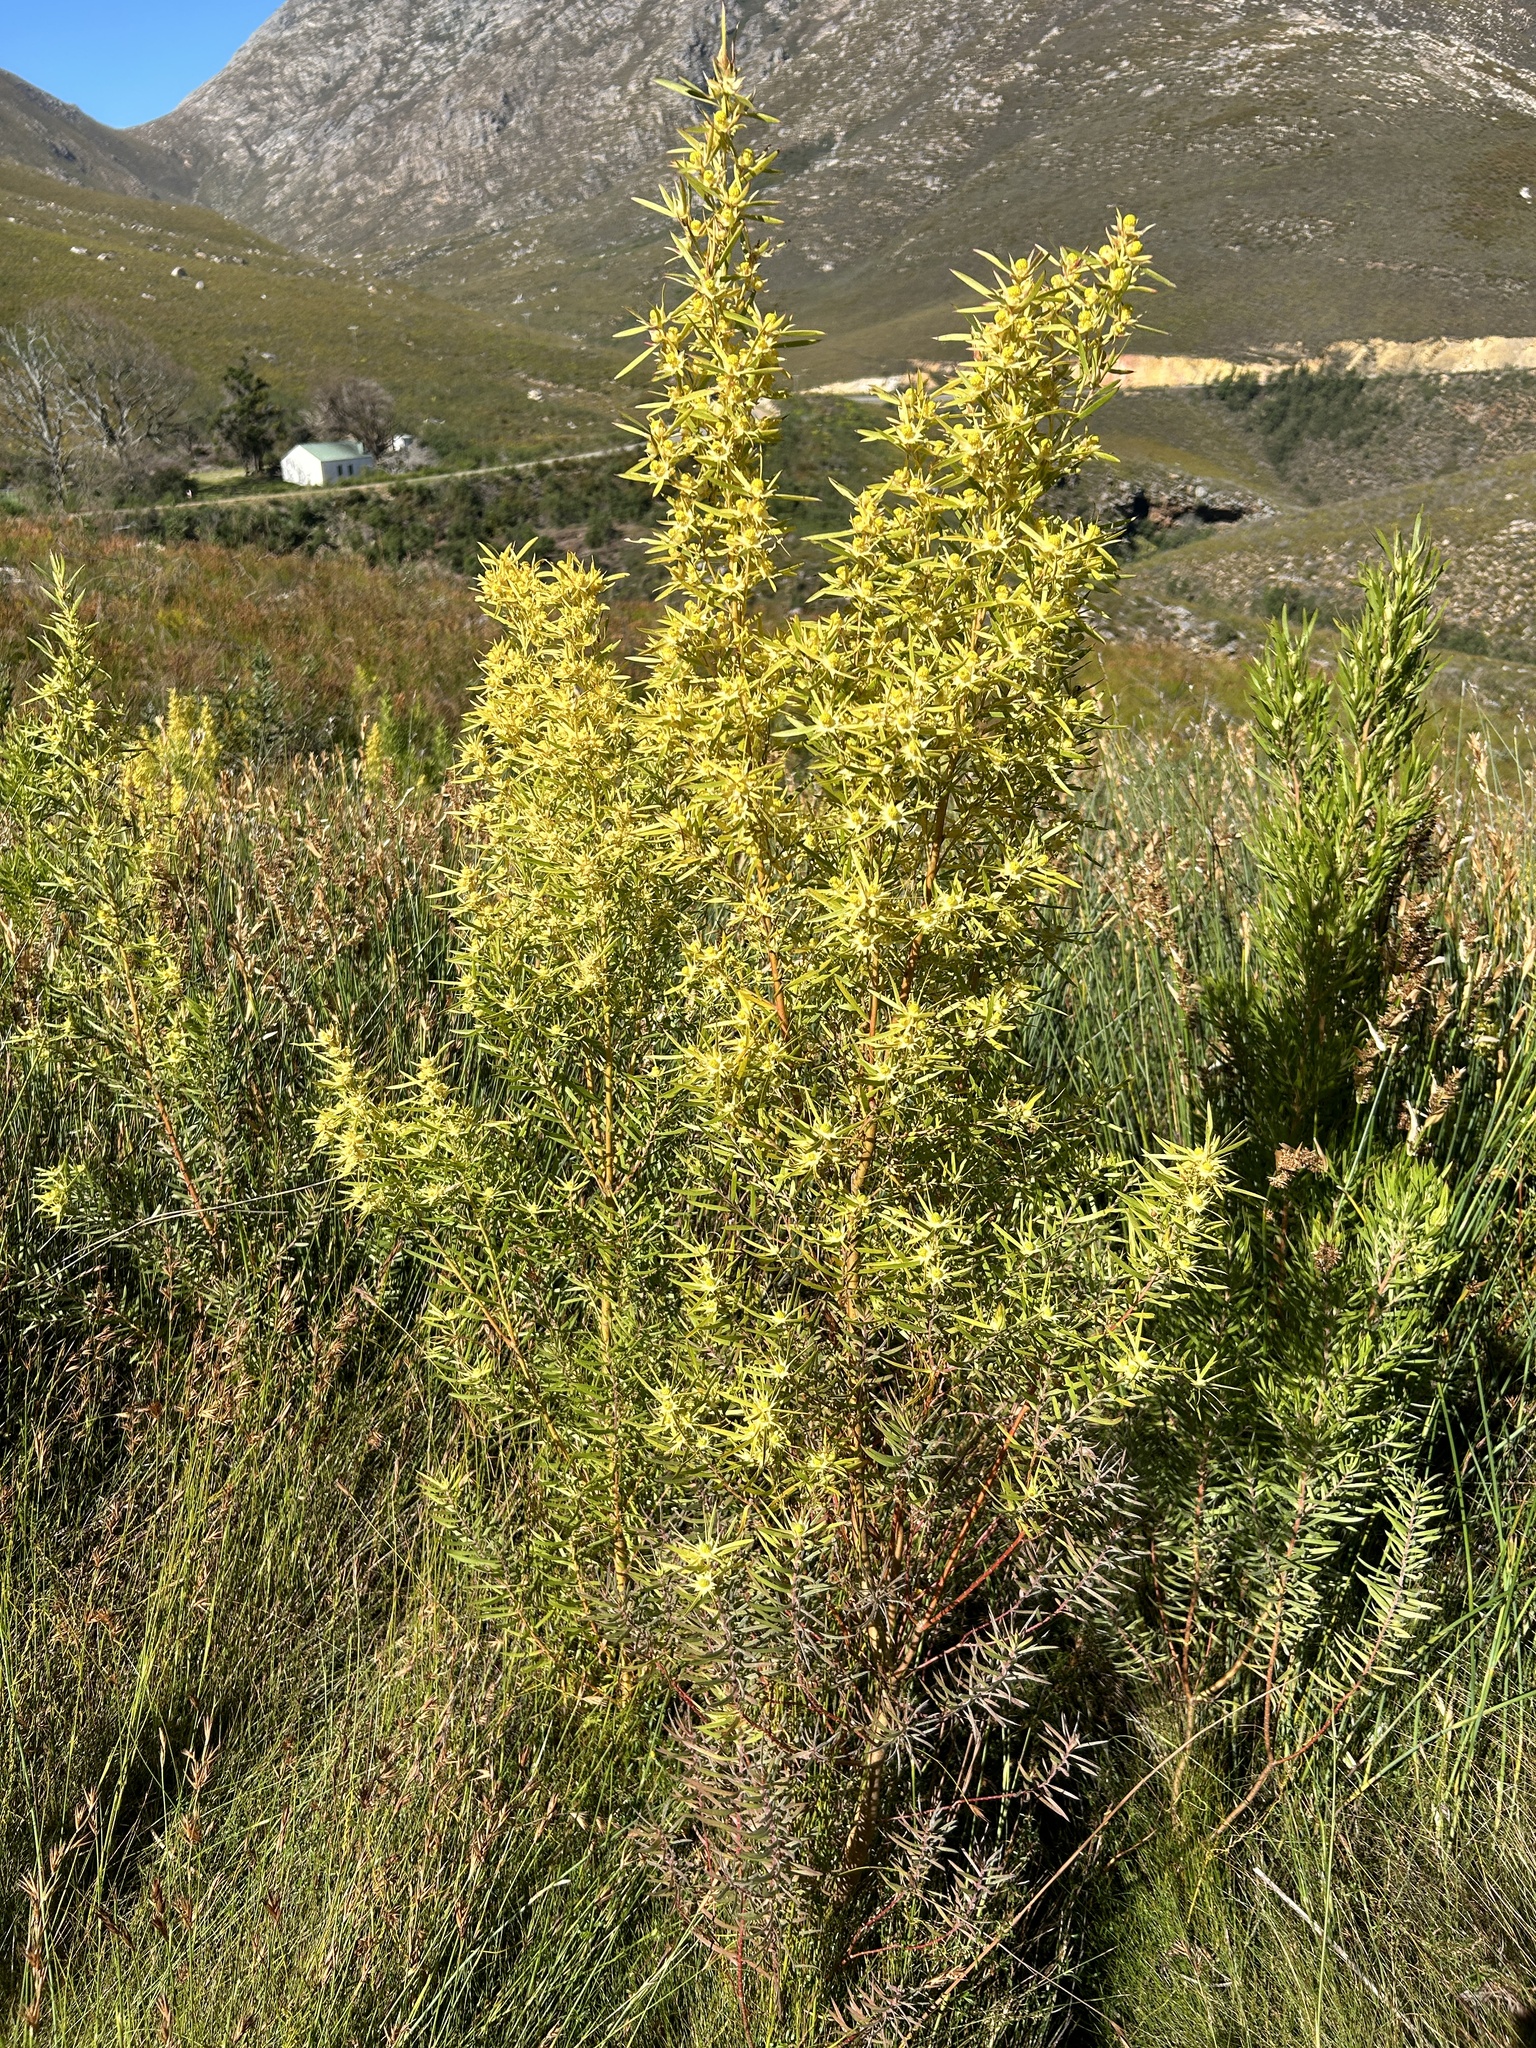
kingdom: Plantae
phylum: Tracheophyta
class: Magnoliopsida
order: Proteales
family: Proteaceae
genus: Leucadendron
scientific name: Leucadendron salicifolium
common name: Common stream conebush
